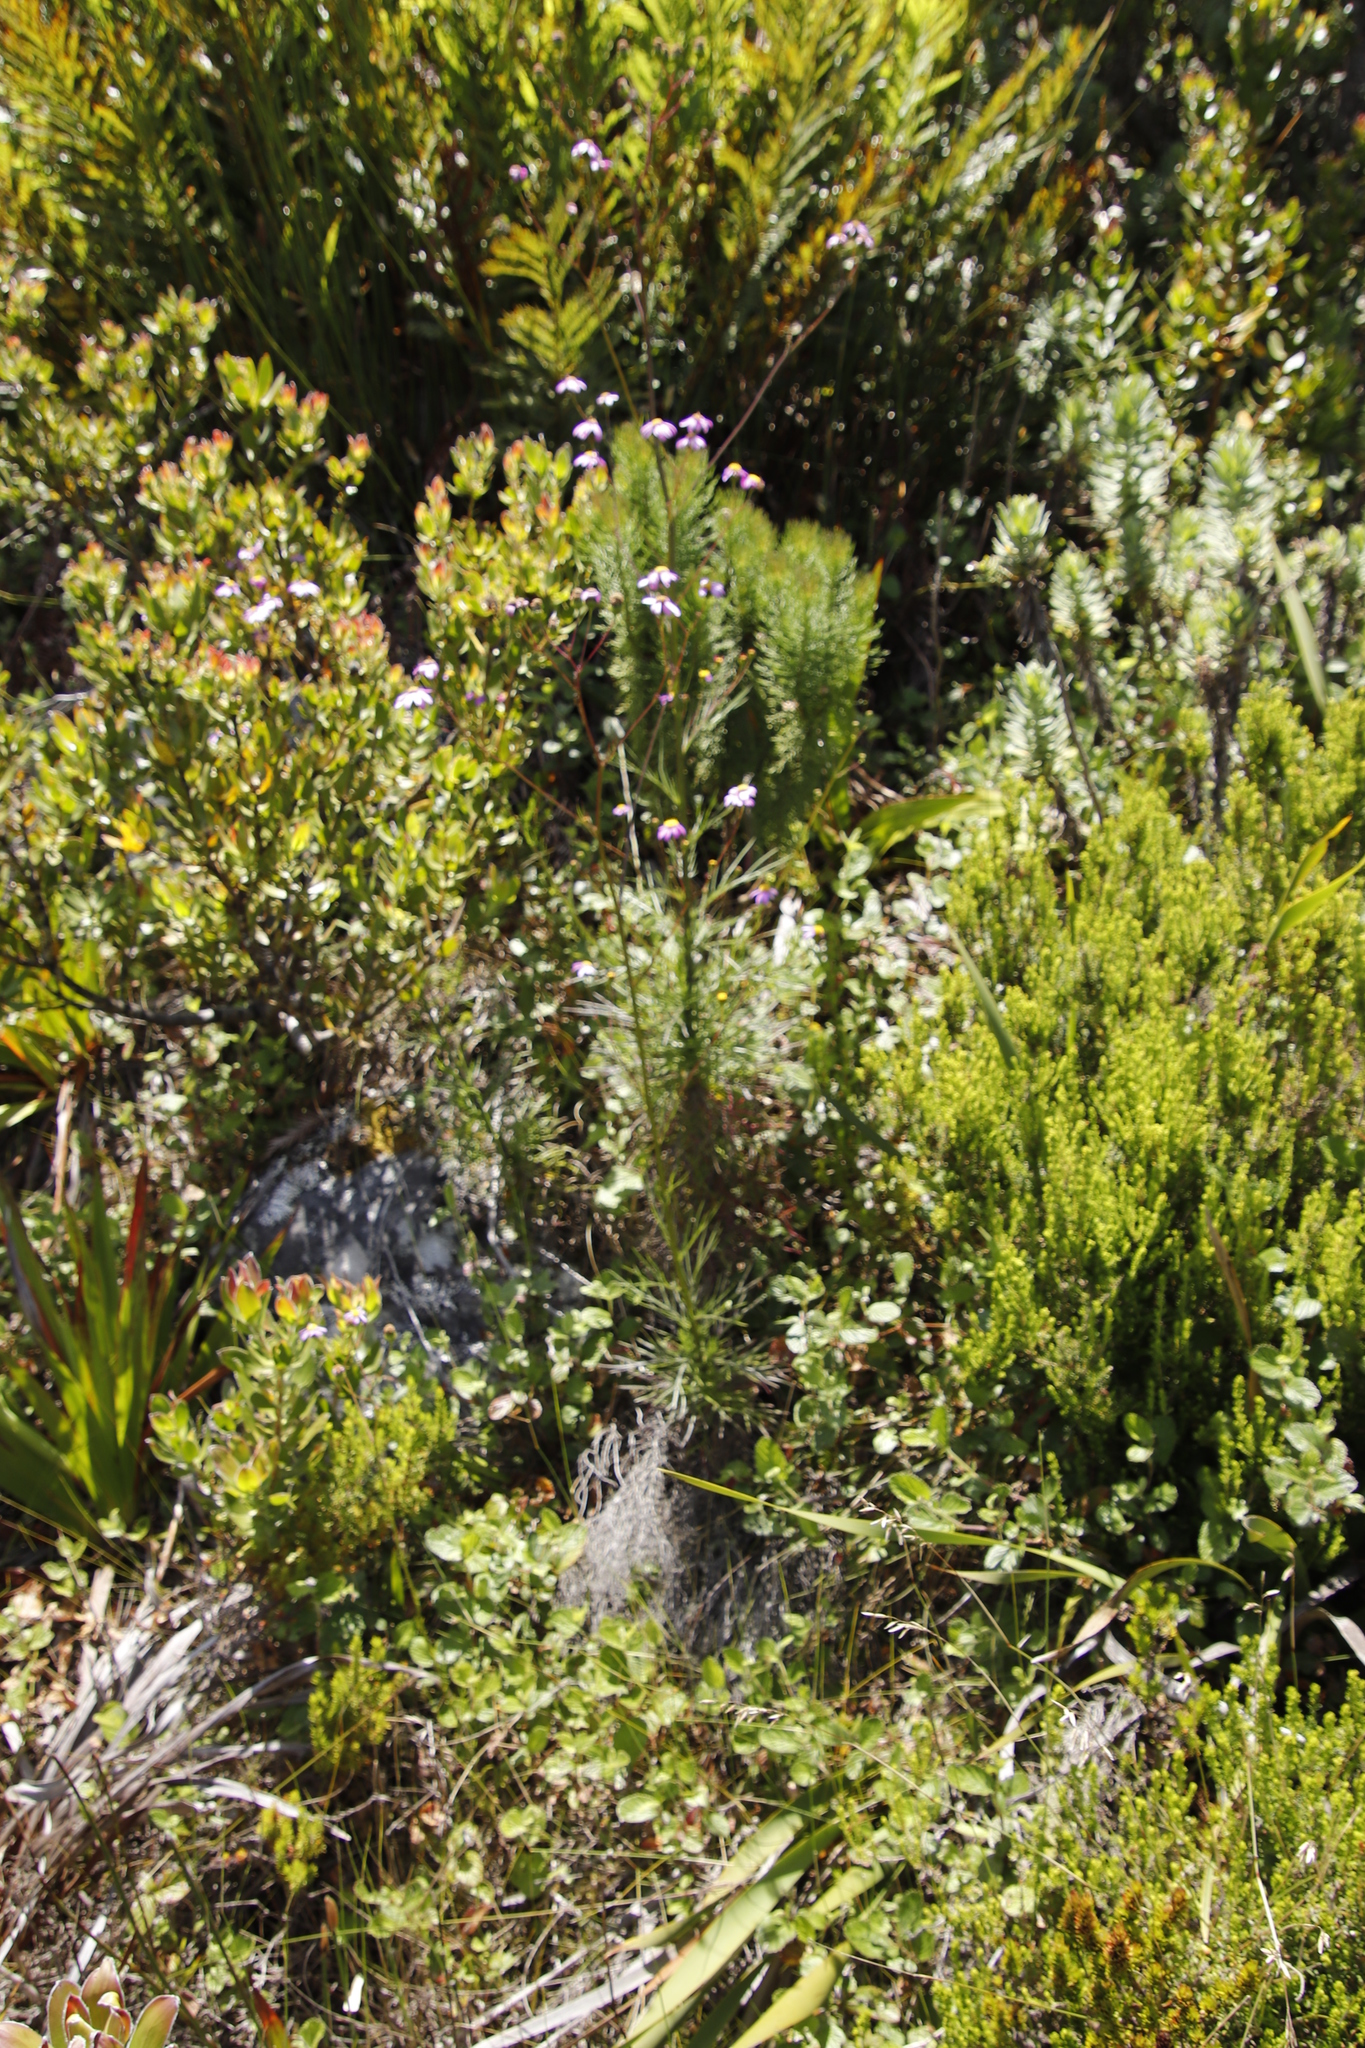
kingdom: Plantae
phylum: Tracheophyta
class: Magnoliopsida
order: Asterales
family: Asteraceae
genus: Senecio
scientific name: Senecio umbellatus
